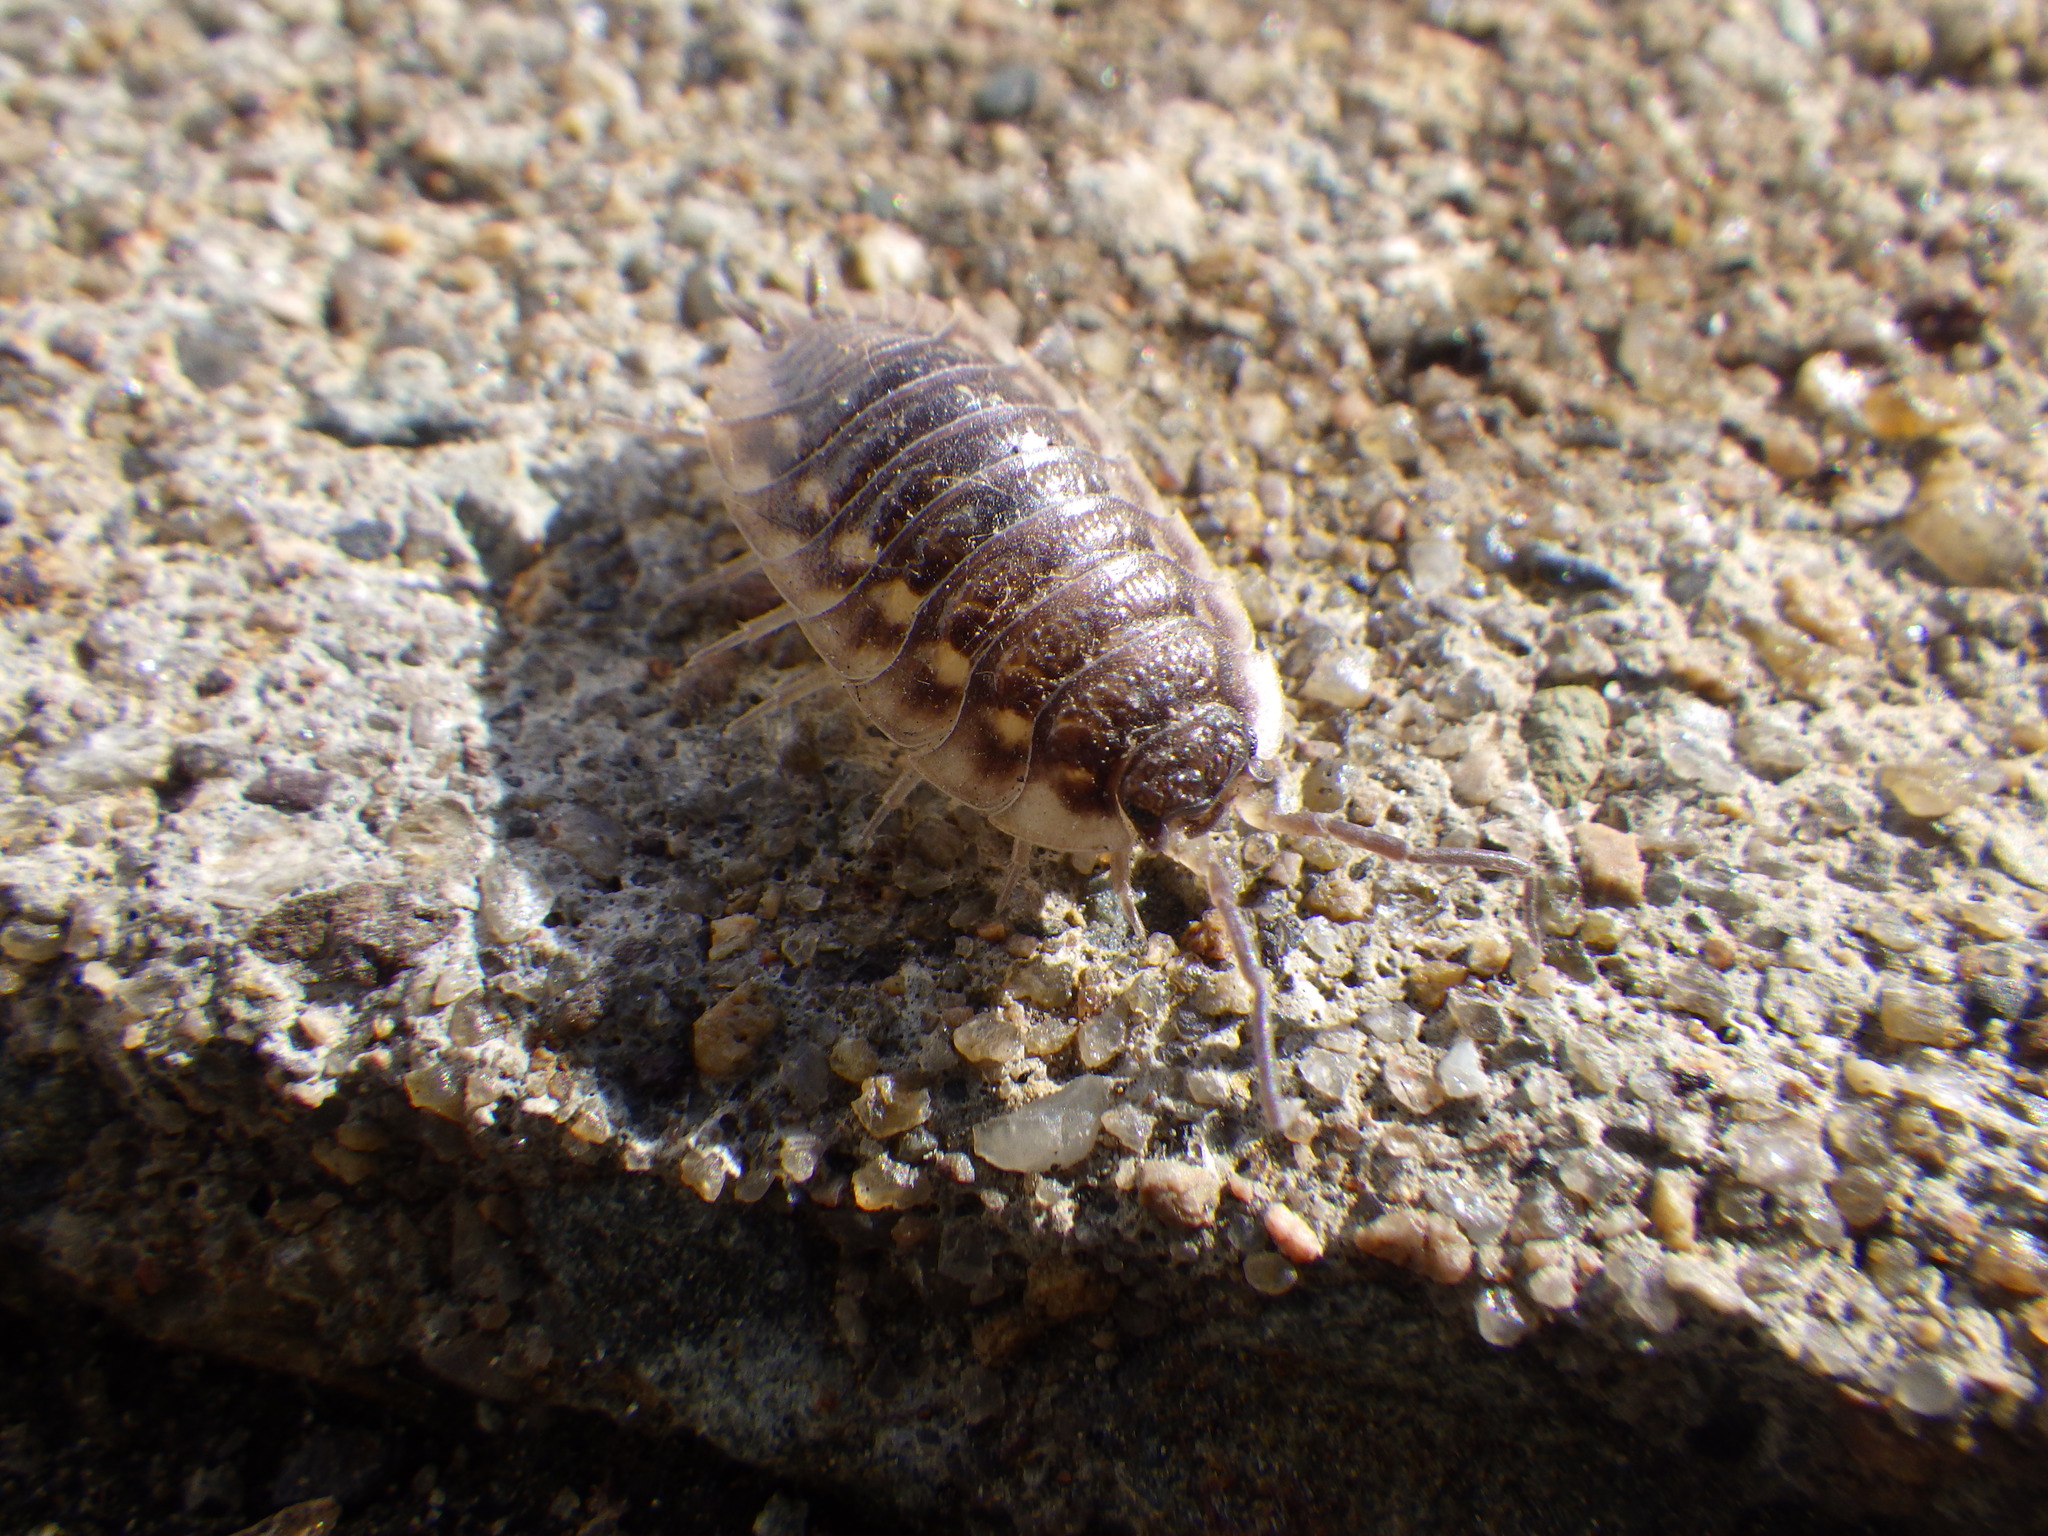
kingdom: Animalia
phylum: Arthropoda
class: Malacostraca
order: Isopoda
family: Oniscidae
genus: Oniscus
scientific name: Oniscus asellus
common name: Common shiny woodlouse
